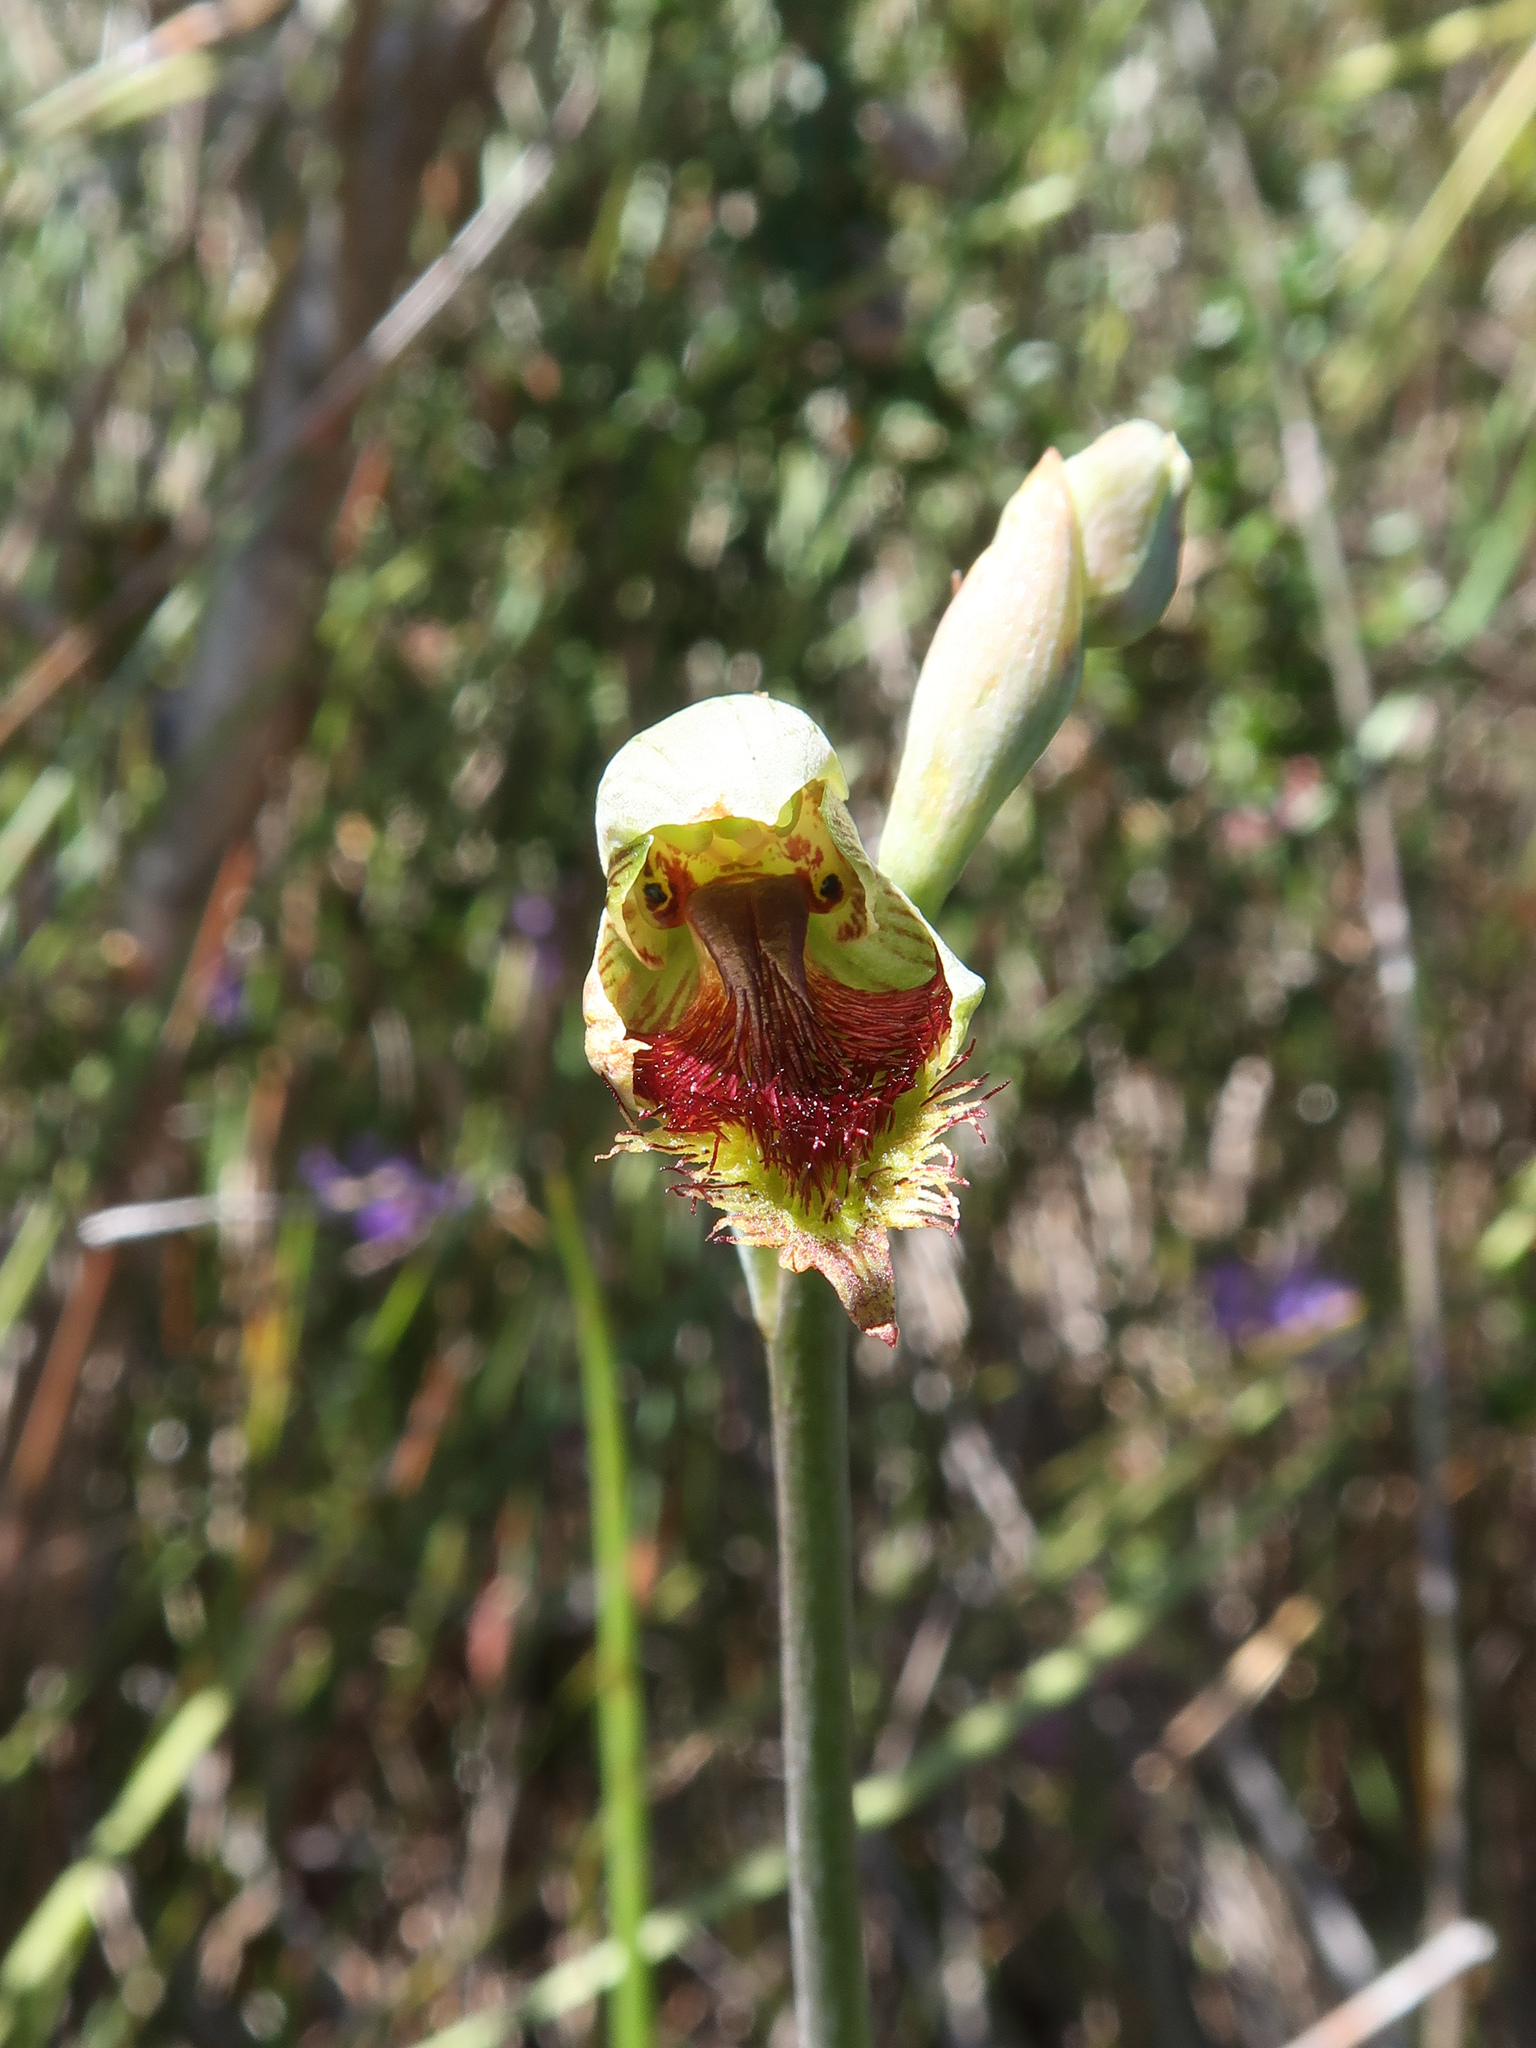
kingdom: Plantae
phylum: Tracheophyta
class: Liliopsida
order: Asparagales
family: Orchidaceae
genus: Calochilus
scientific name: Calochilus herbaceus
